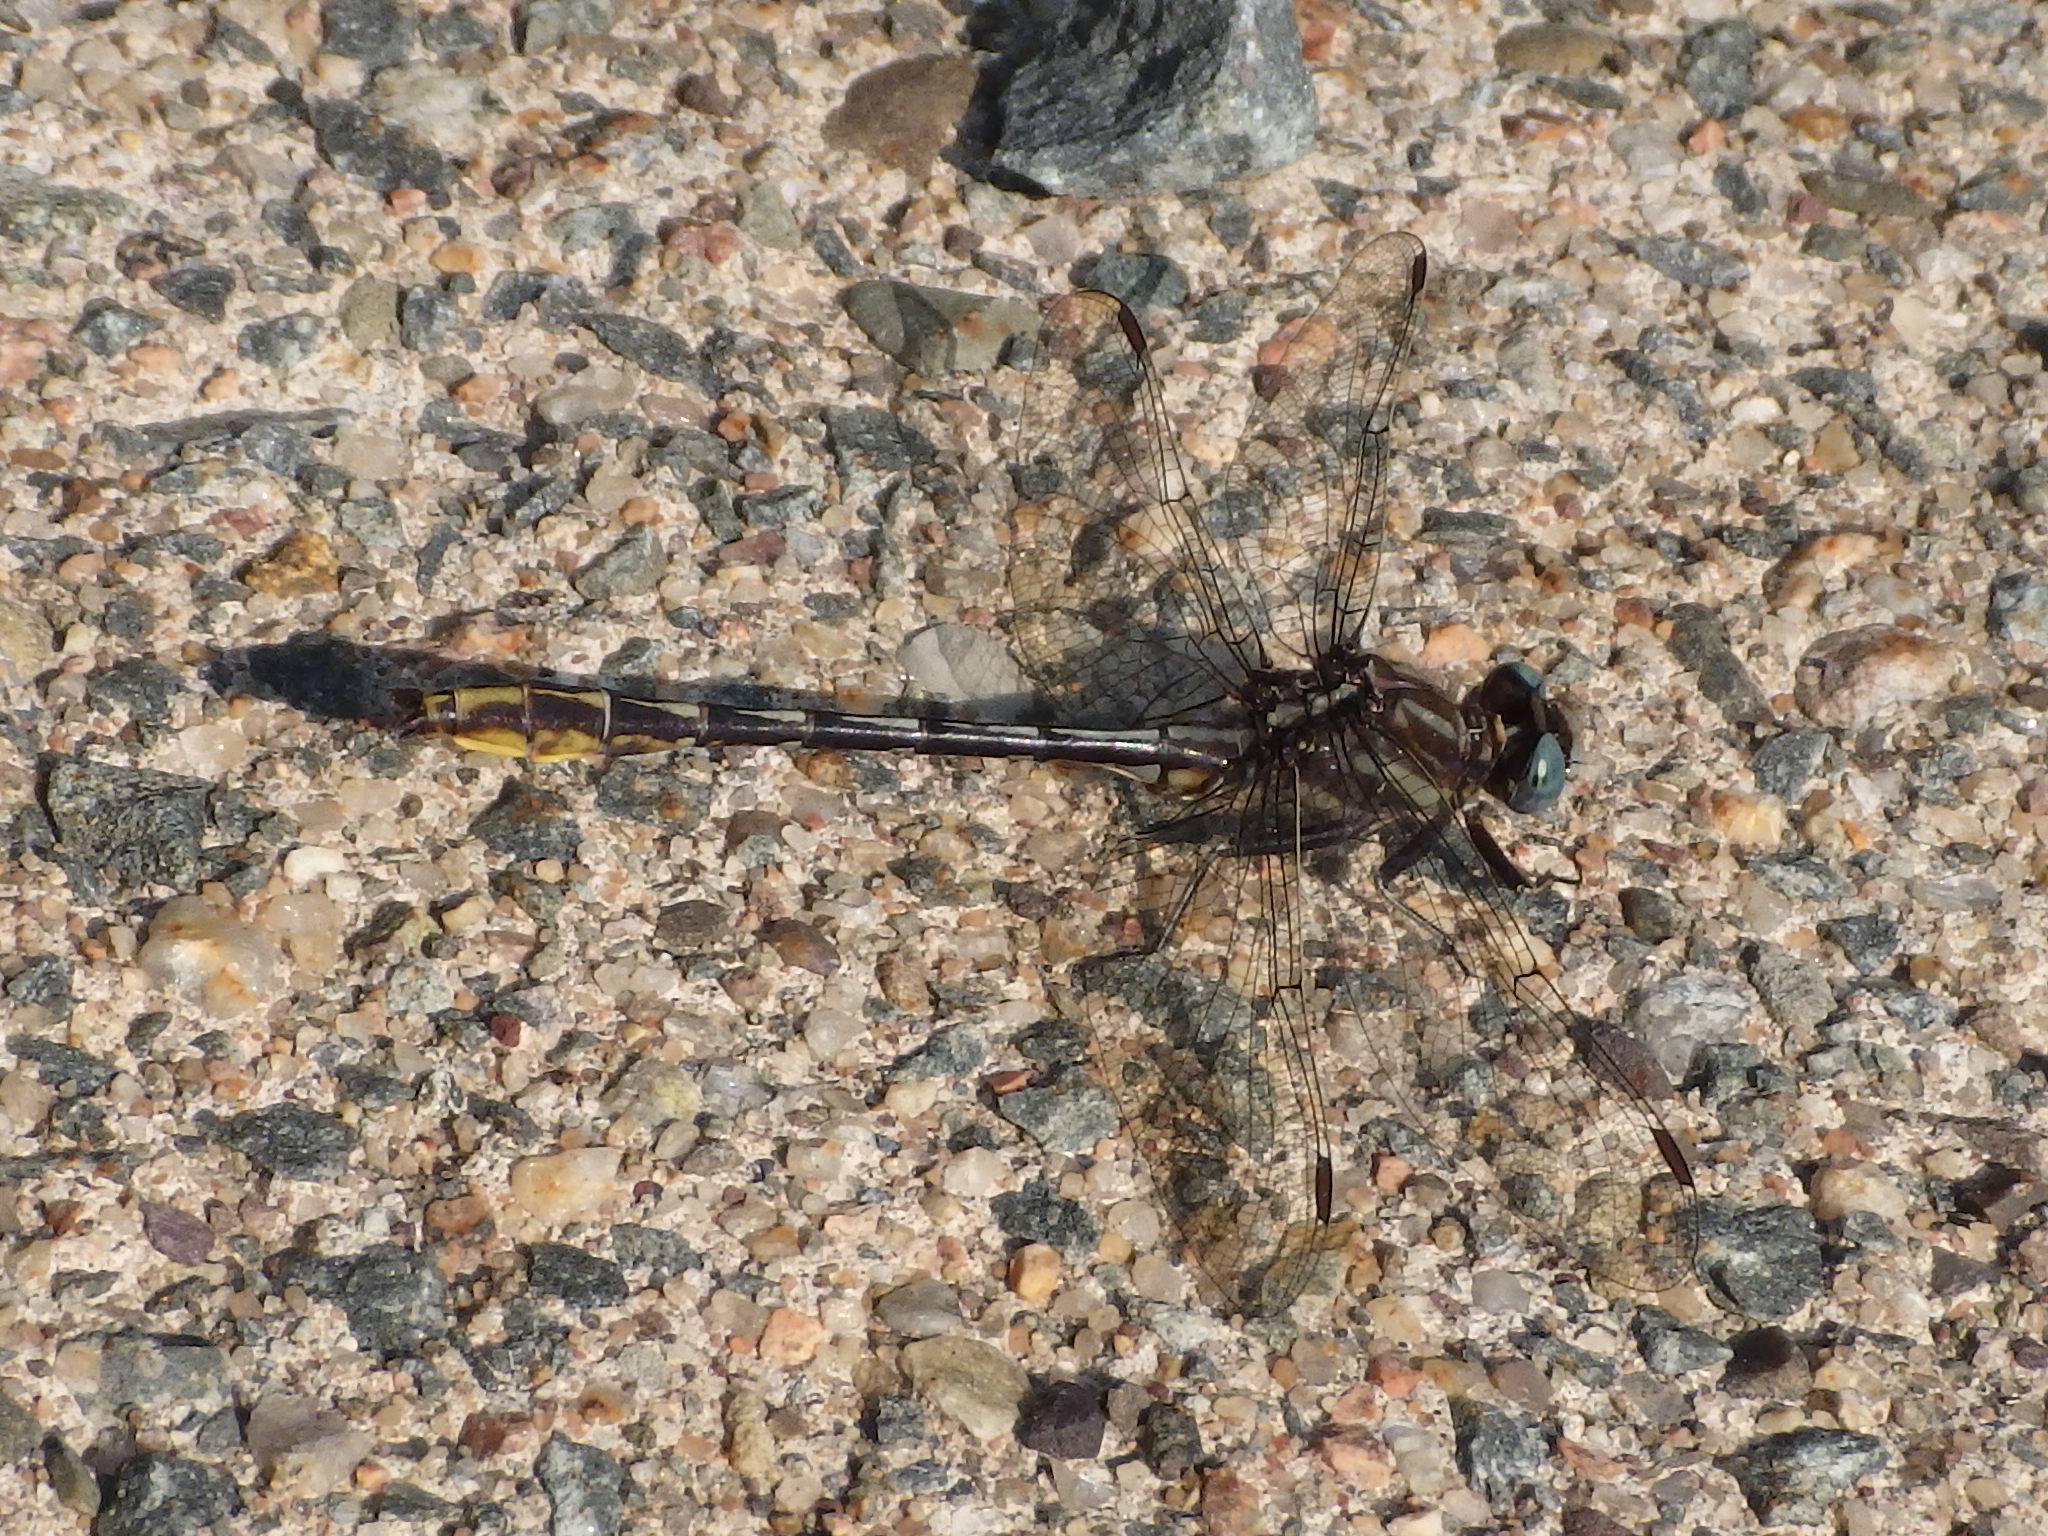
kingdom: Animalia
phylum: Arthropoda
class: Insecta
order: Odonata
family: Gomphidae
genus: Phanogomphus
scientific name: Phanogomphus exilis
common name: Lancet clubtail
